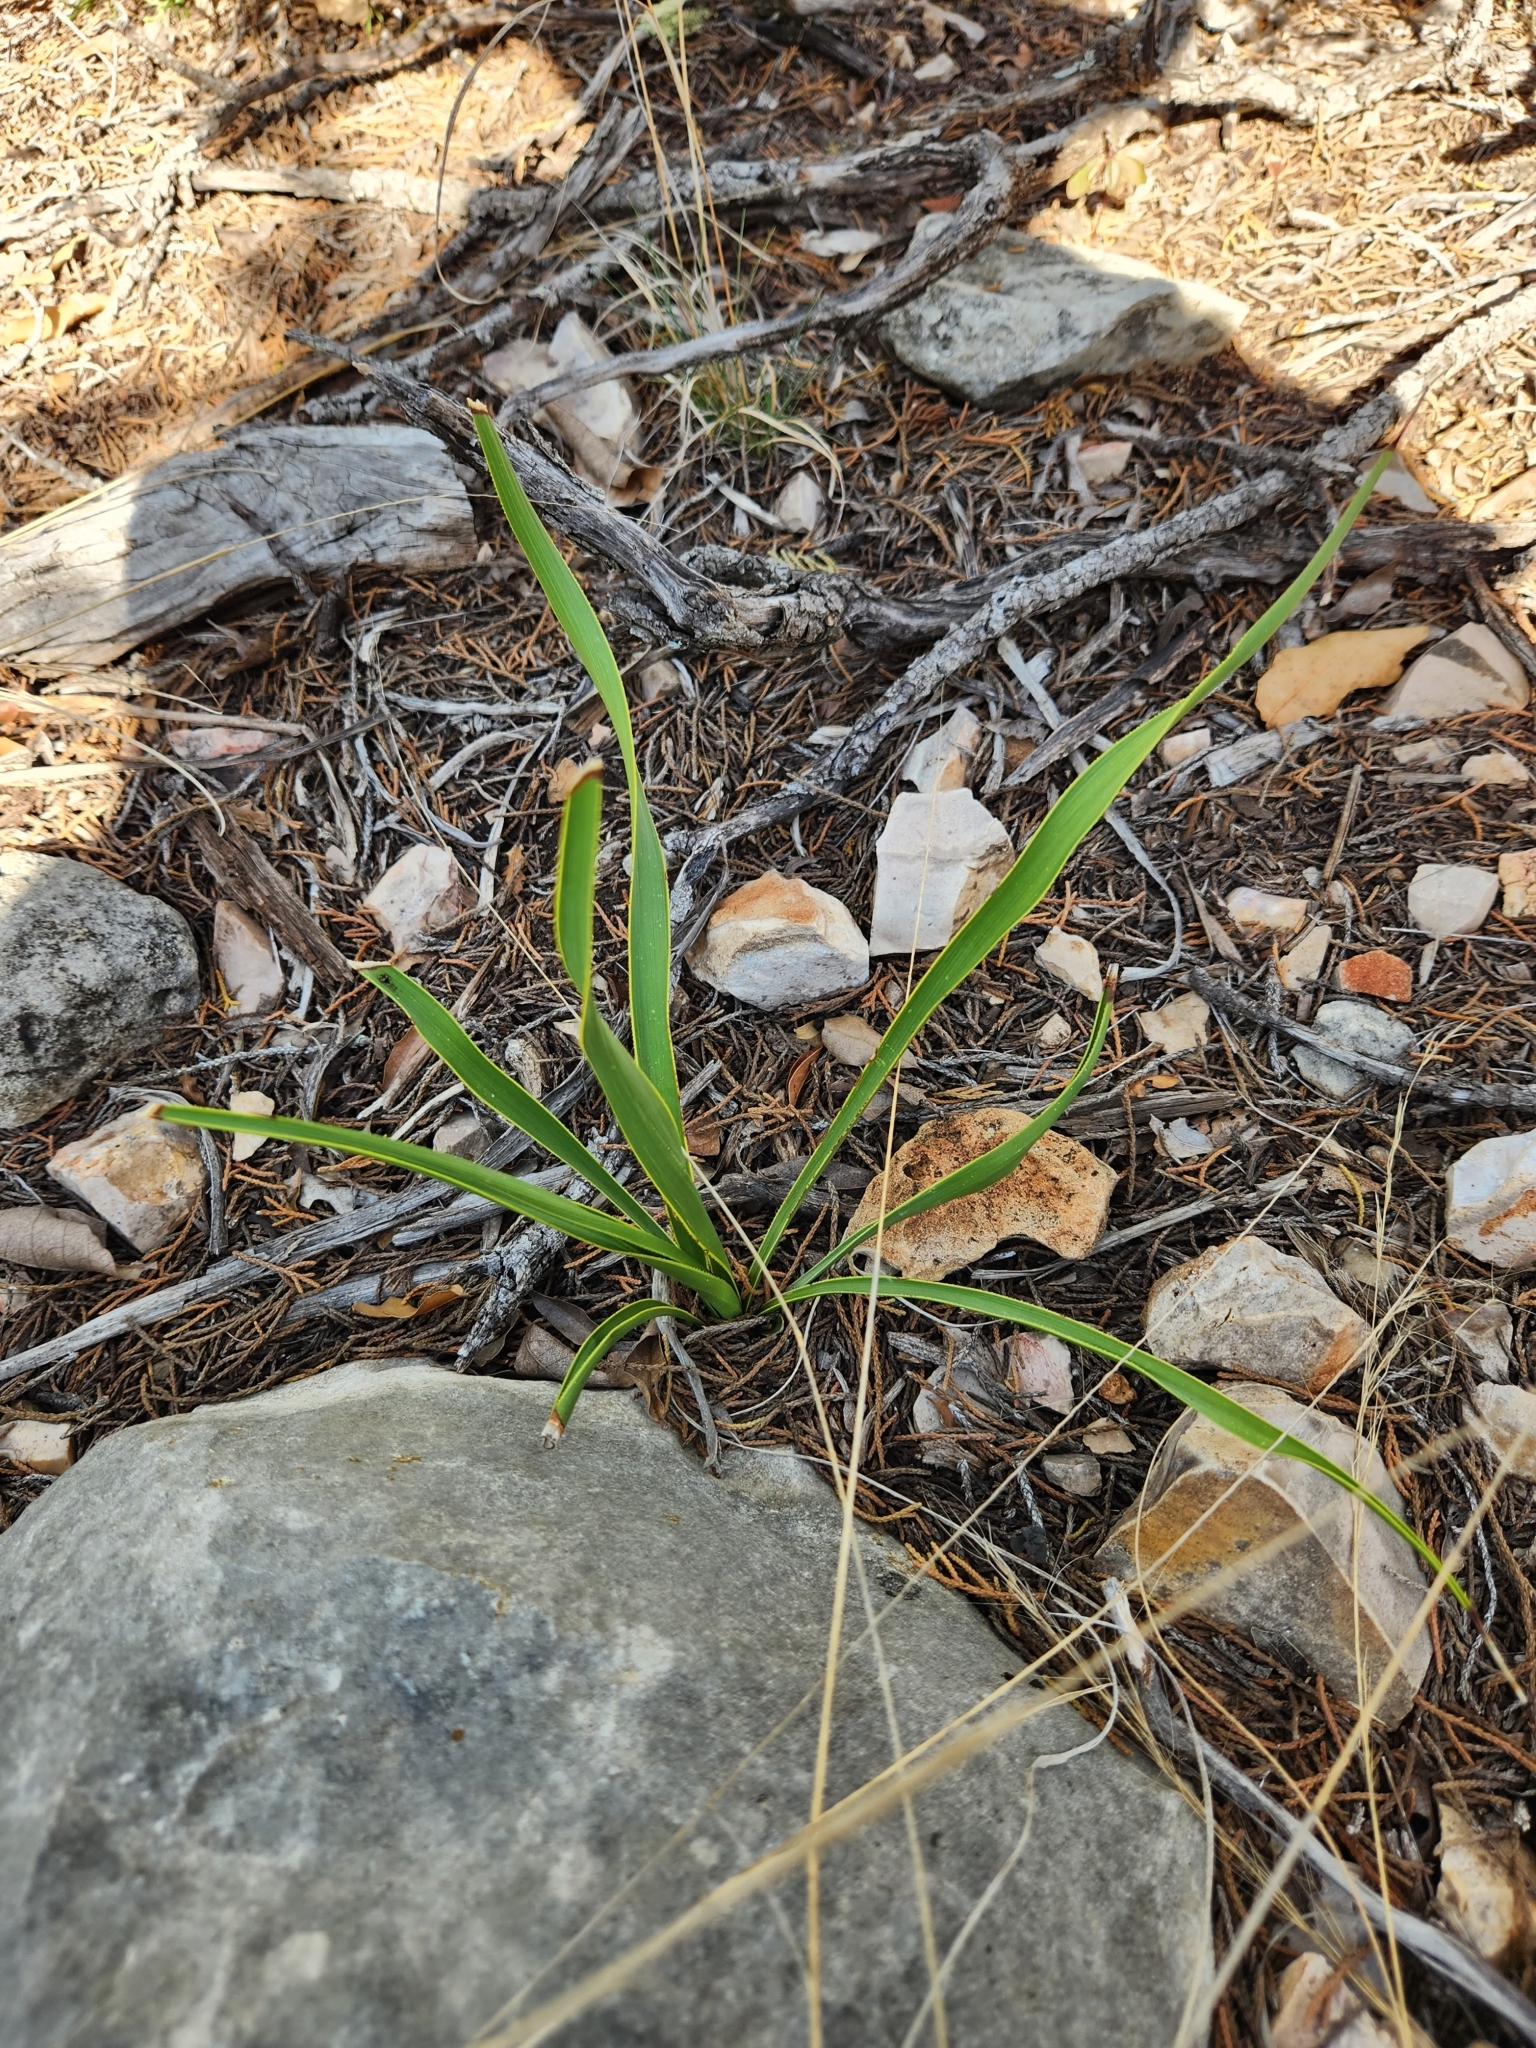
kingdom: Plantae
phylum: Tracheophyta
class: Liliopsida
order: Asparagales
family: Asparagaceae
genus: Yucca
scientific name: Yucca rupicola
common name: Twisted-leaf spanish-dagger
